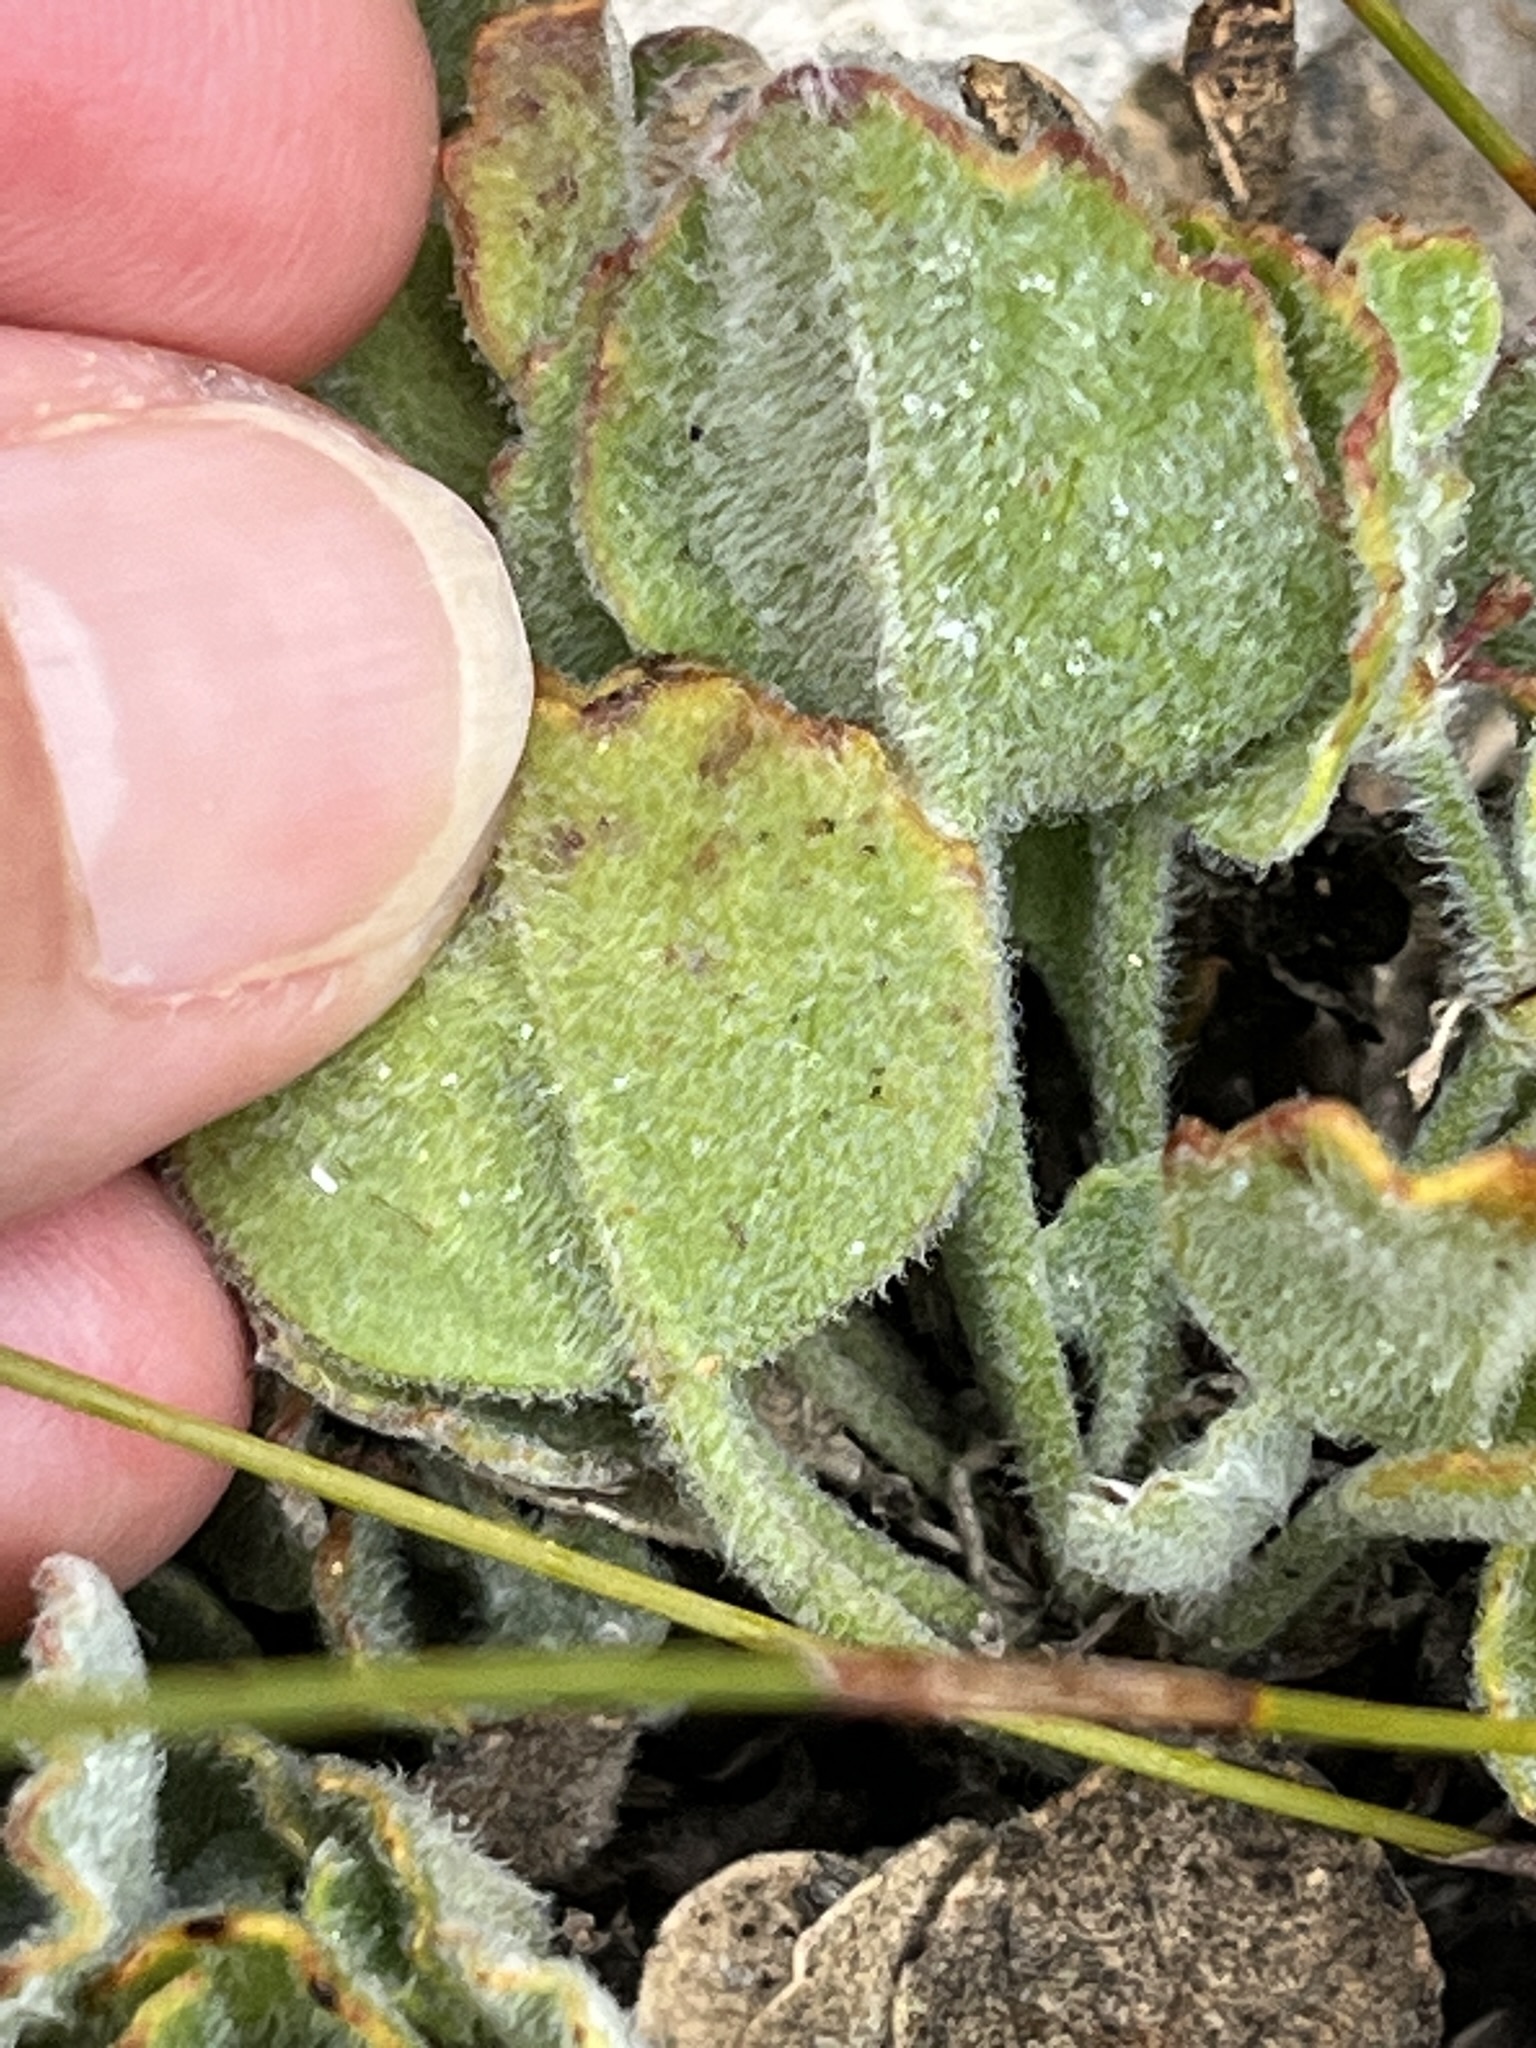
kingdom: Plantae
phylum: Tracheophyta
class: Magnoliopsida
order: Apiales
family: Apiaceae
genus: Centella
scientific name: Centella difformis
